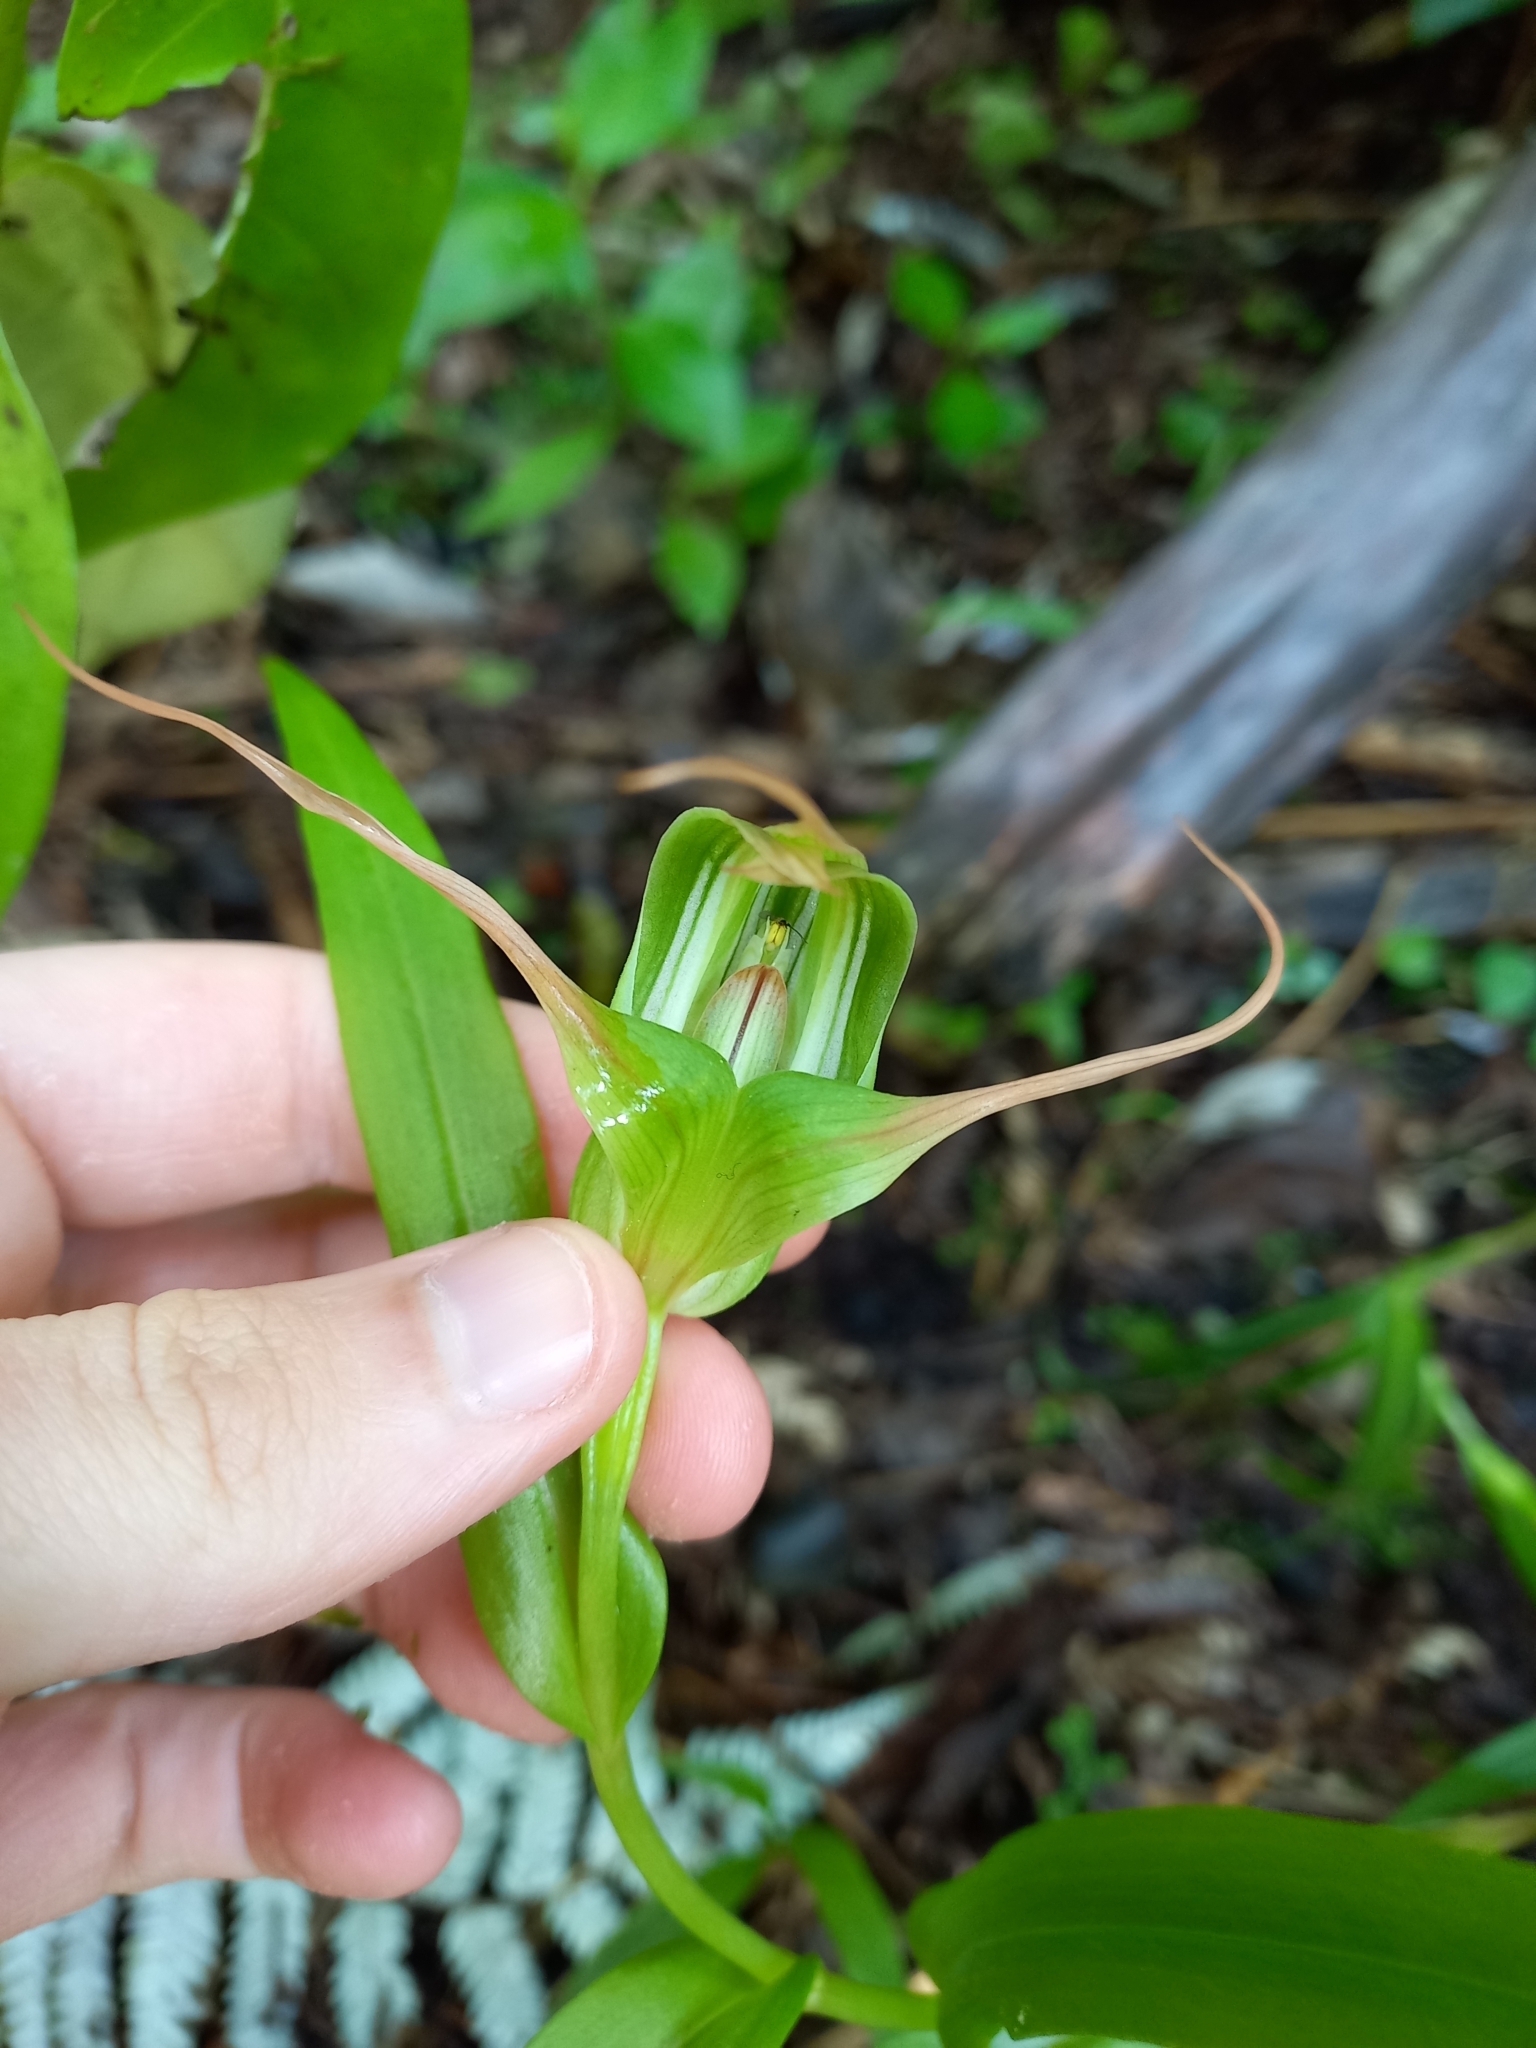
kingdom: Plantae
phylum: Tracheophyta
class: Liliopsida
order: Asparagales
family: Orchidaceae
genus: Pterostylis
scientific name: Pterostylis banksii
